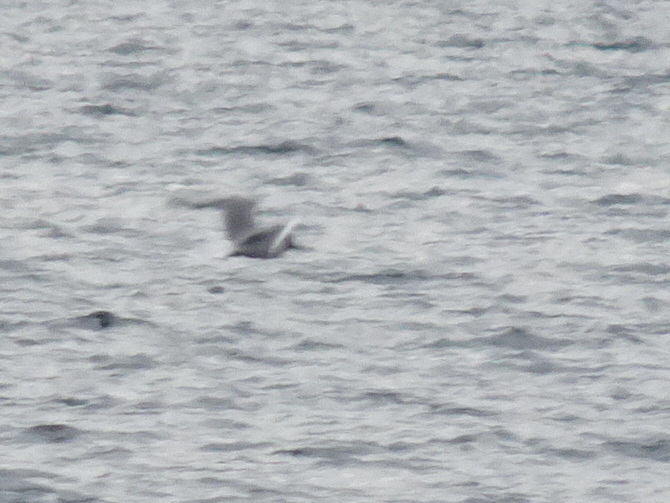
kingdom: Animalia
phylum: Chordata
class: Aves
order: Charadriiformes
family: Laridae
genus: Chroicocephalus
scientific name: Chroicocephalus philadelphia
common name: Bonaparte's gull
